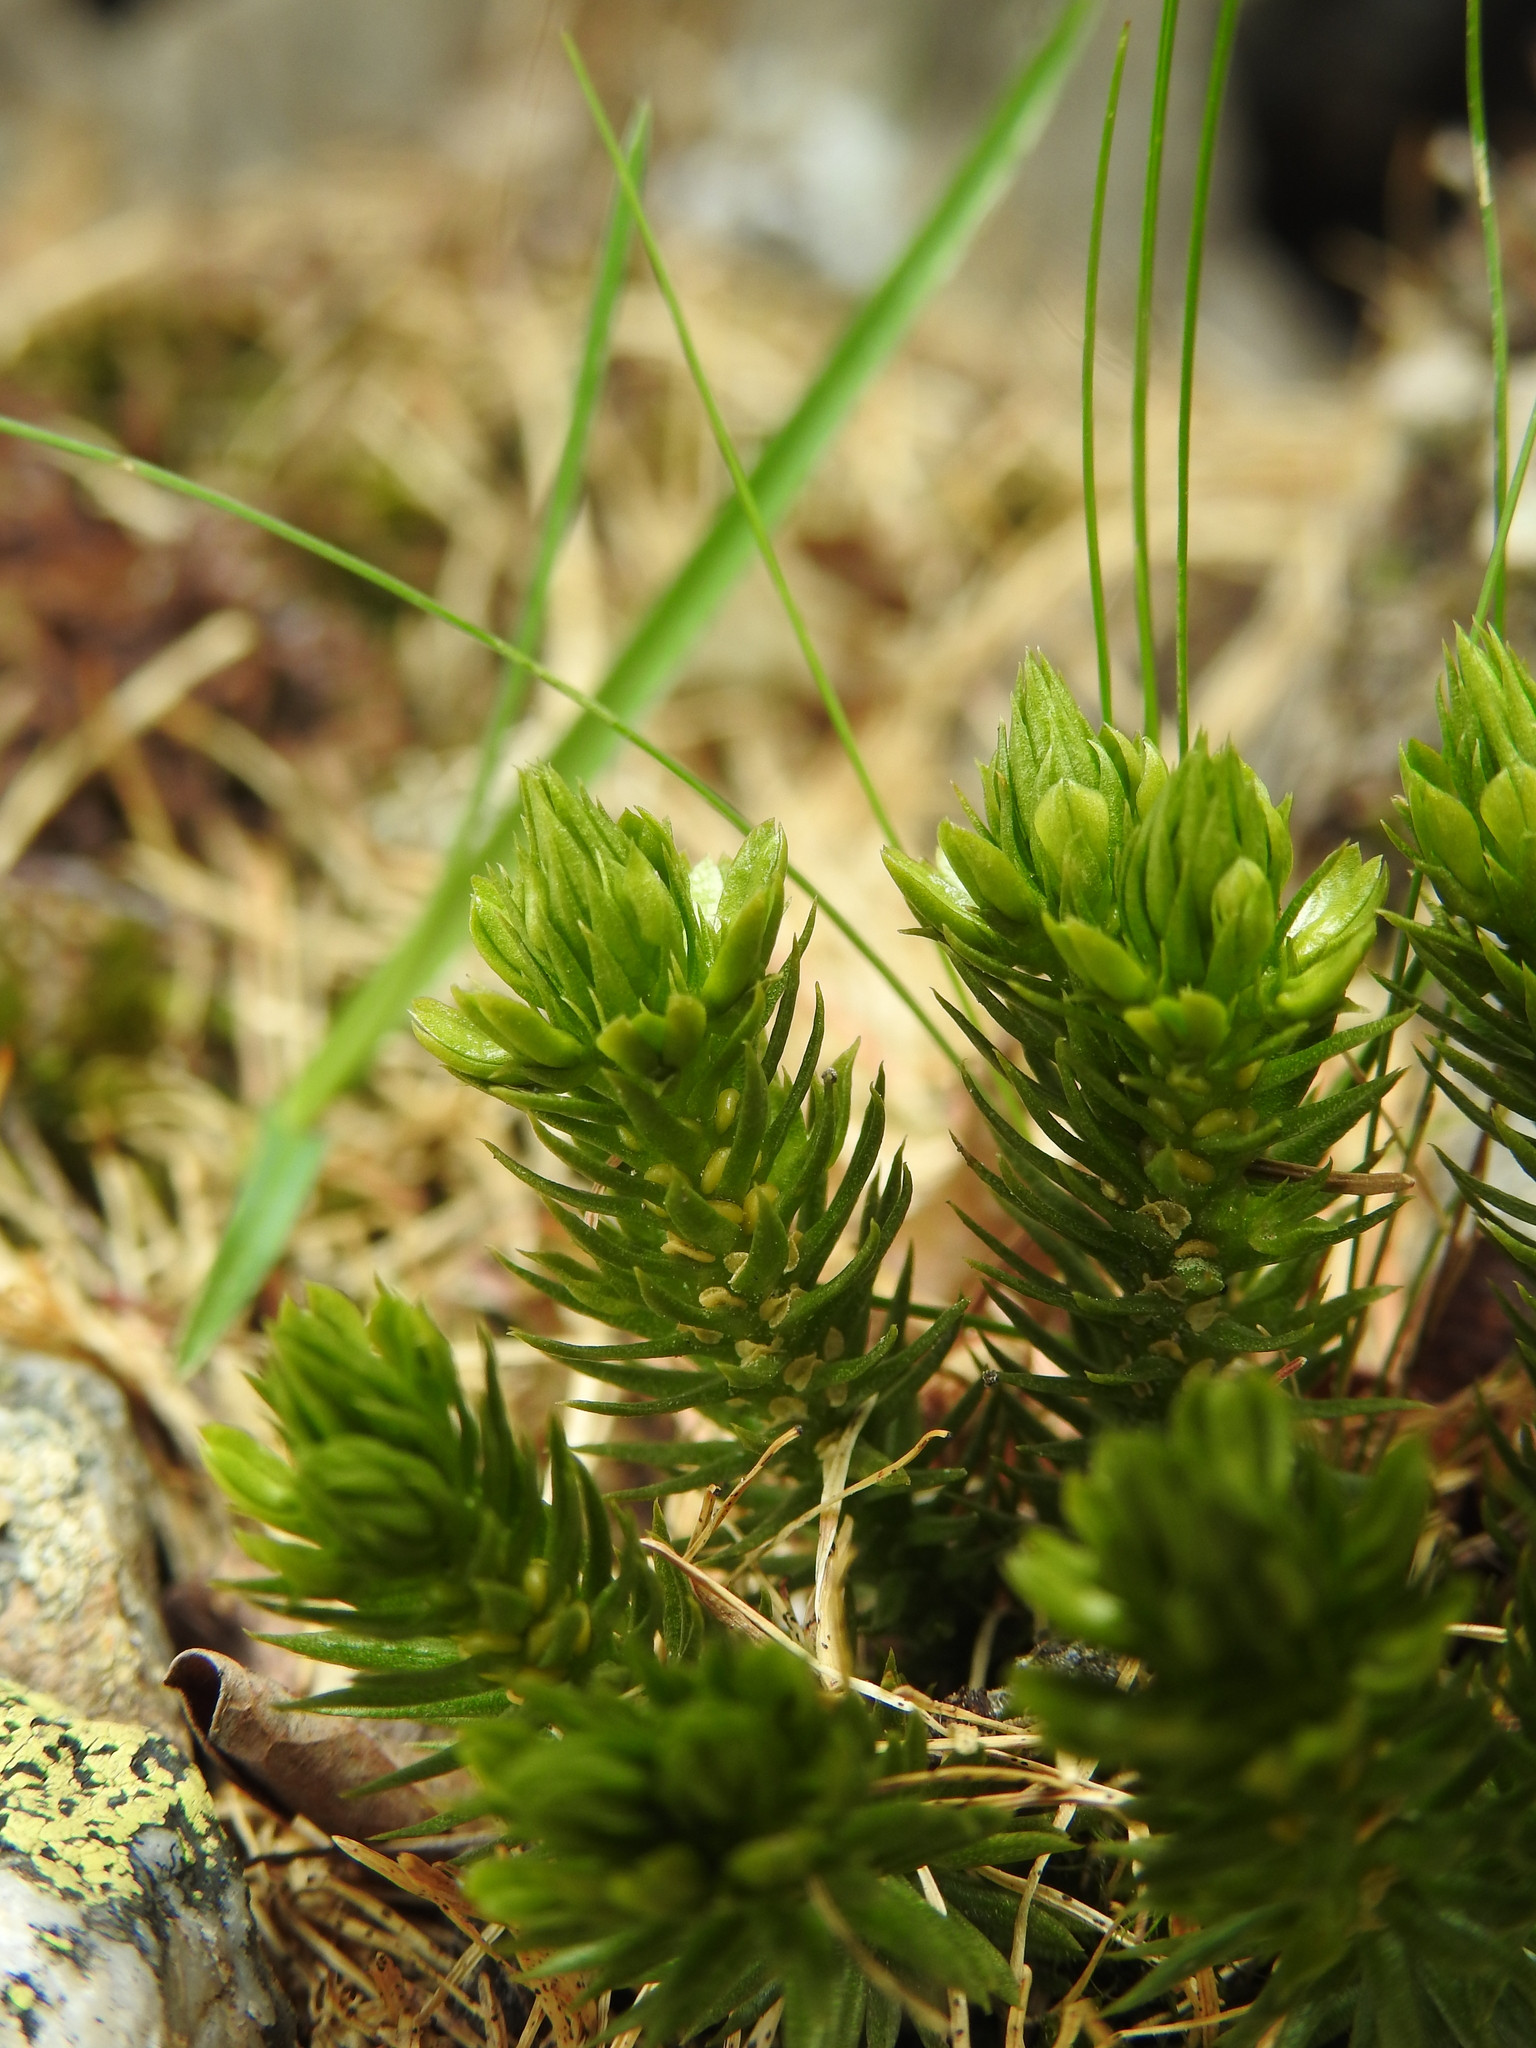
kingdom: Plantae
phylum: Tracheophyta
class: Lycopodiopsida
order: Lycopodiales
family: Lycopodiaceae
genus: Huperzia
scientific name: Huperzia selago
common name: Northern firmoss
